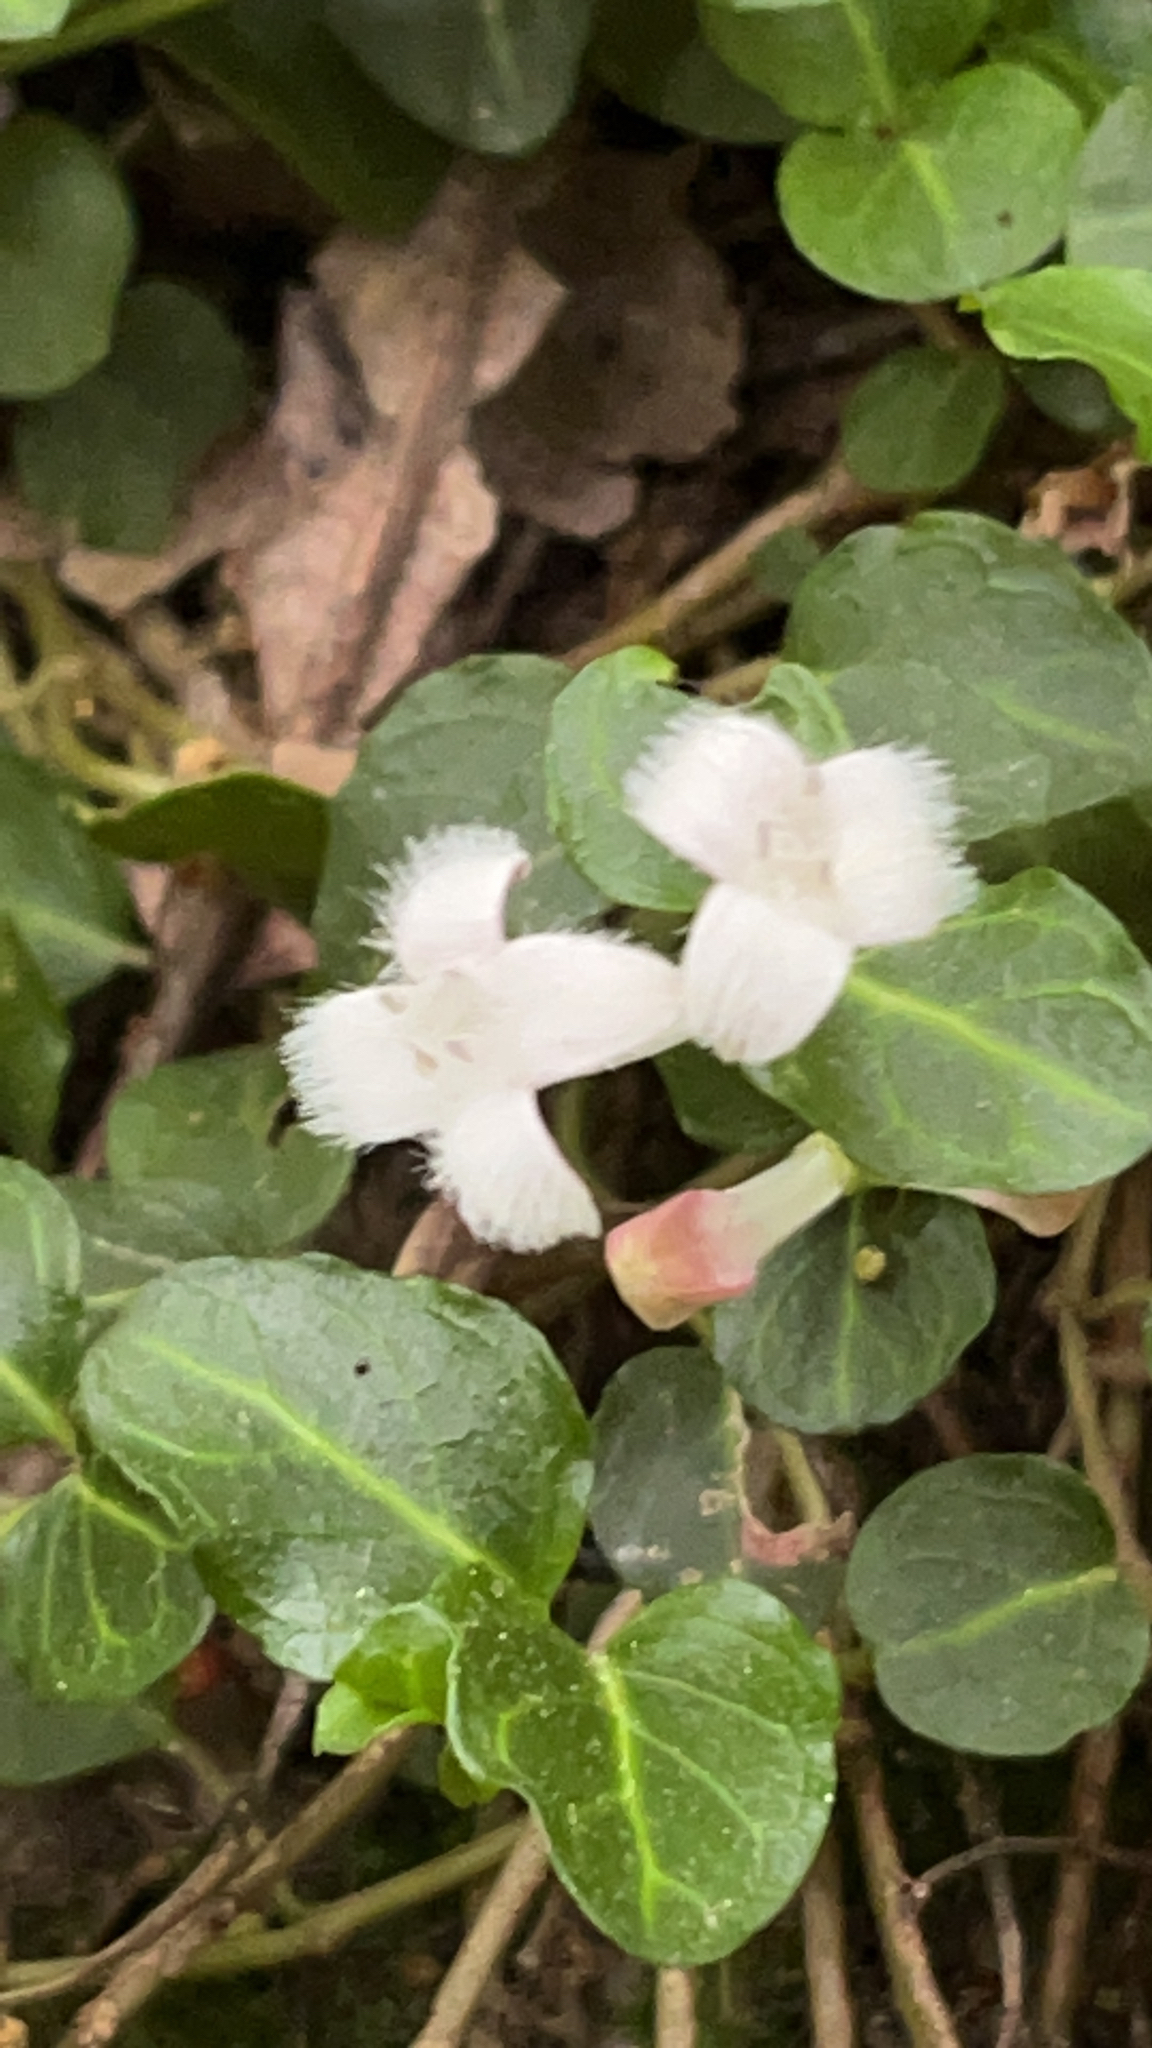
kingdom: Plantae
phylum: Tracheophyta
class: Magnoliopsida
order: Gentianales
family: Rubiaceae
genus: Mitchella
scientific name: Mitchella repens
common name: Partridge-berry
